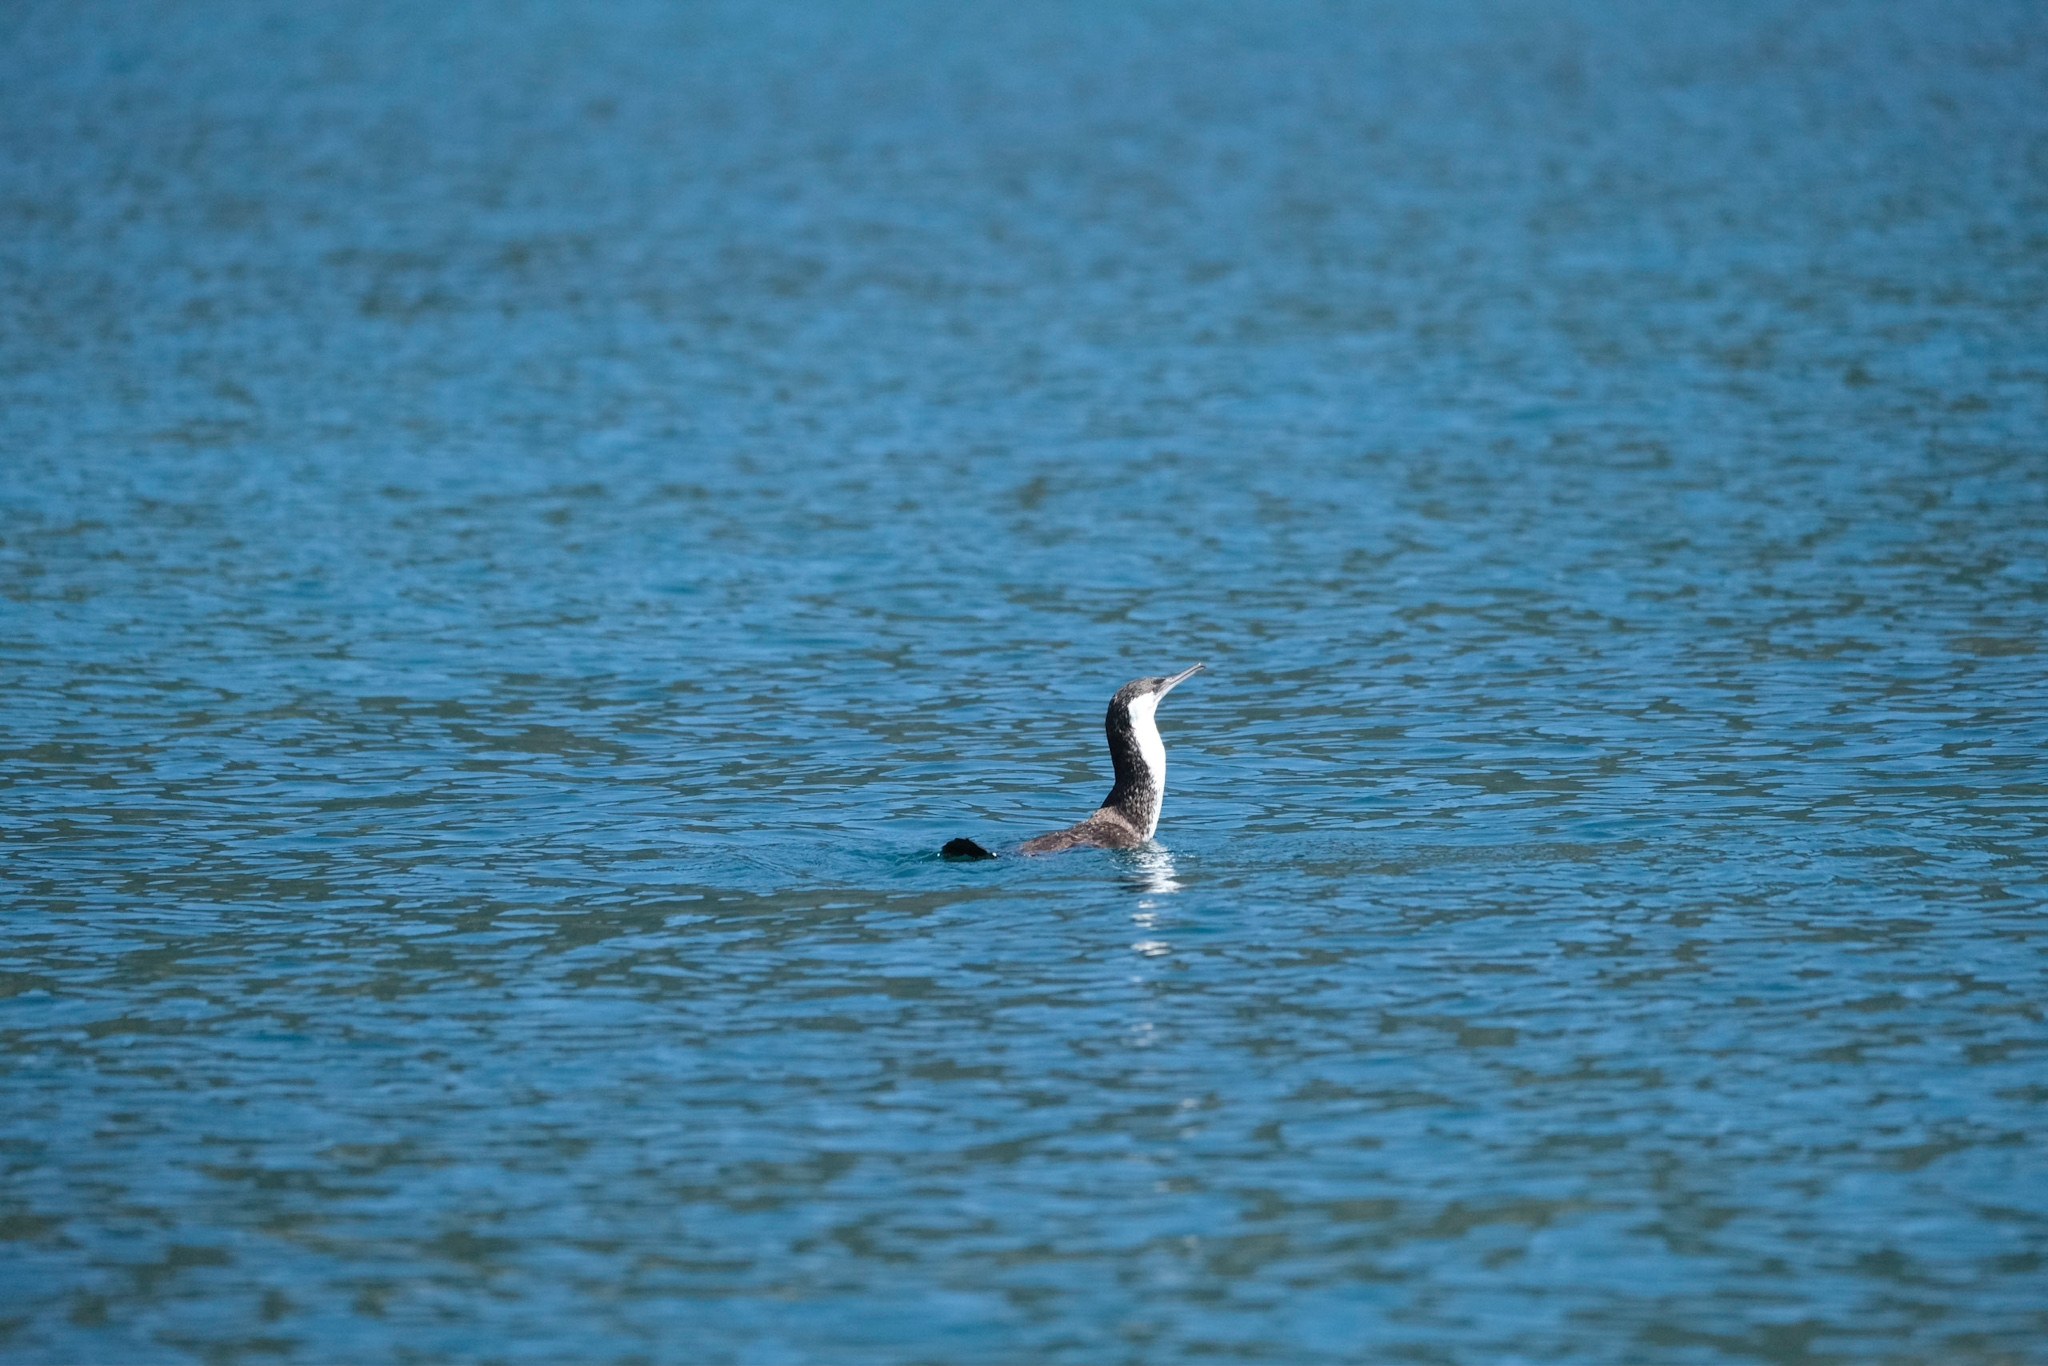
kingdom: Animalia
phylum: Chordata
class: Aves
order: Suliformes
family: Phalacrocoracidae
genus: Phalacrocorax
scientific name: Phalacrocorax fuscescens
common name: Black-faced cormorant
